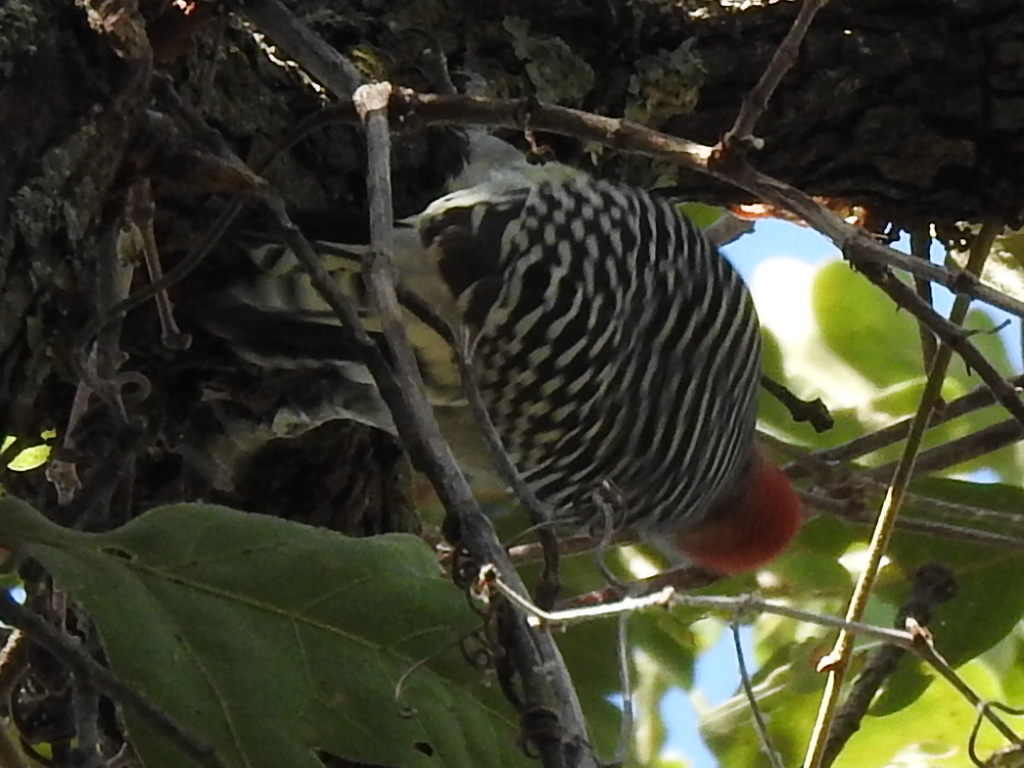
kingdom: Animalia
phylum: Chordata
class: Aves
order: Piciformes
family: Picidae
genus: Melanerpes
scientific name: Melanerpes carolinus
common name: Red-bellied woodpecker
